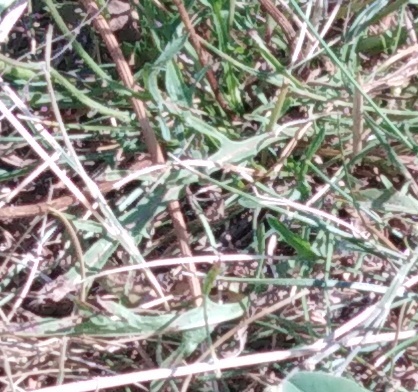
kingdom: Plantae
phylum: Tracheophyta
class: Magnoliopsida
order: Asterales
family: Asteraceae
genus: Scorzoneroides
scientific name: Scorzoneroides autumnalis
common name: Autumn hawkbit
